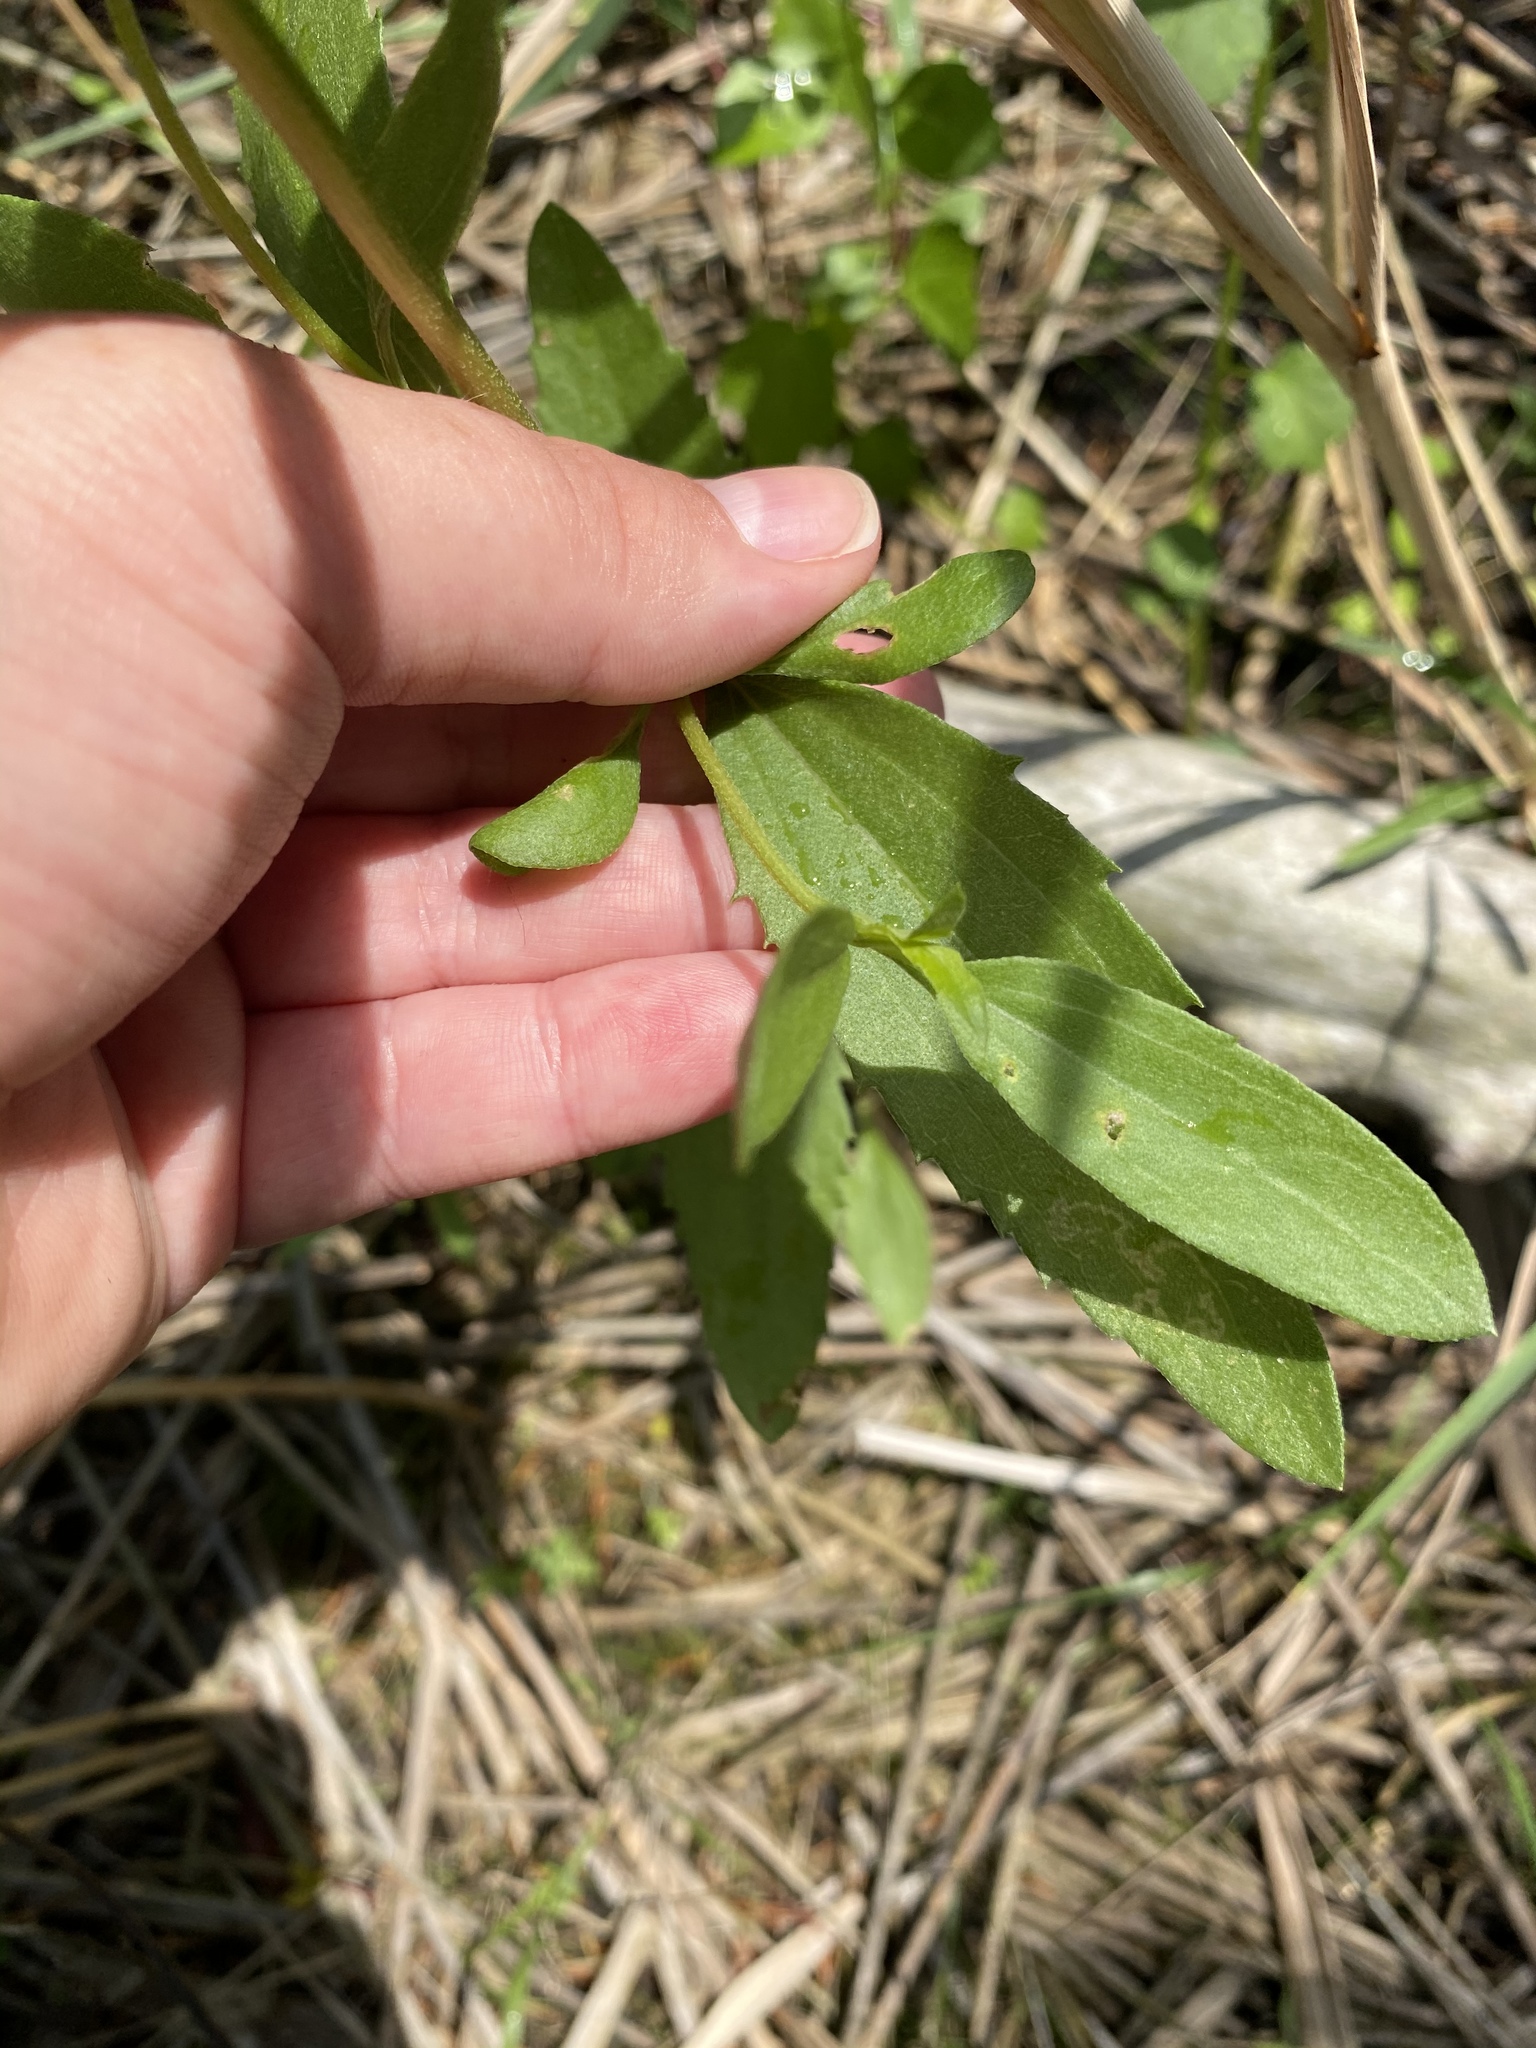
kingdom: Plantae
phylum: Tracheophyta
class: Magnoliopsida
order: Asterales
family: Asteraceae
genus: Iva
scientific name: Iva frutescens
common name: Big-leaved marsh-elder
